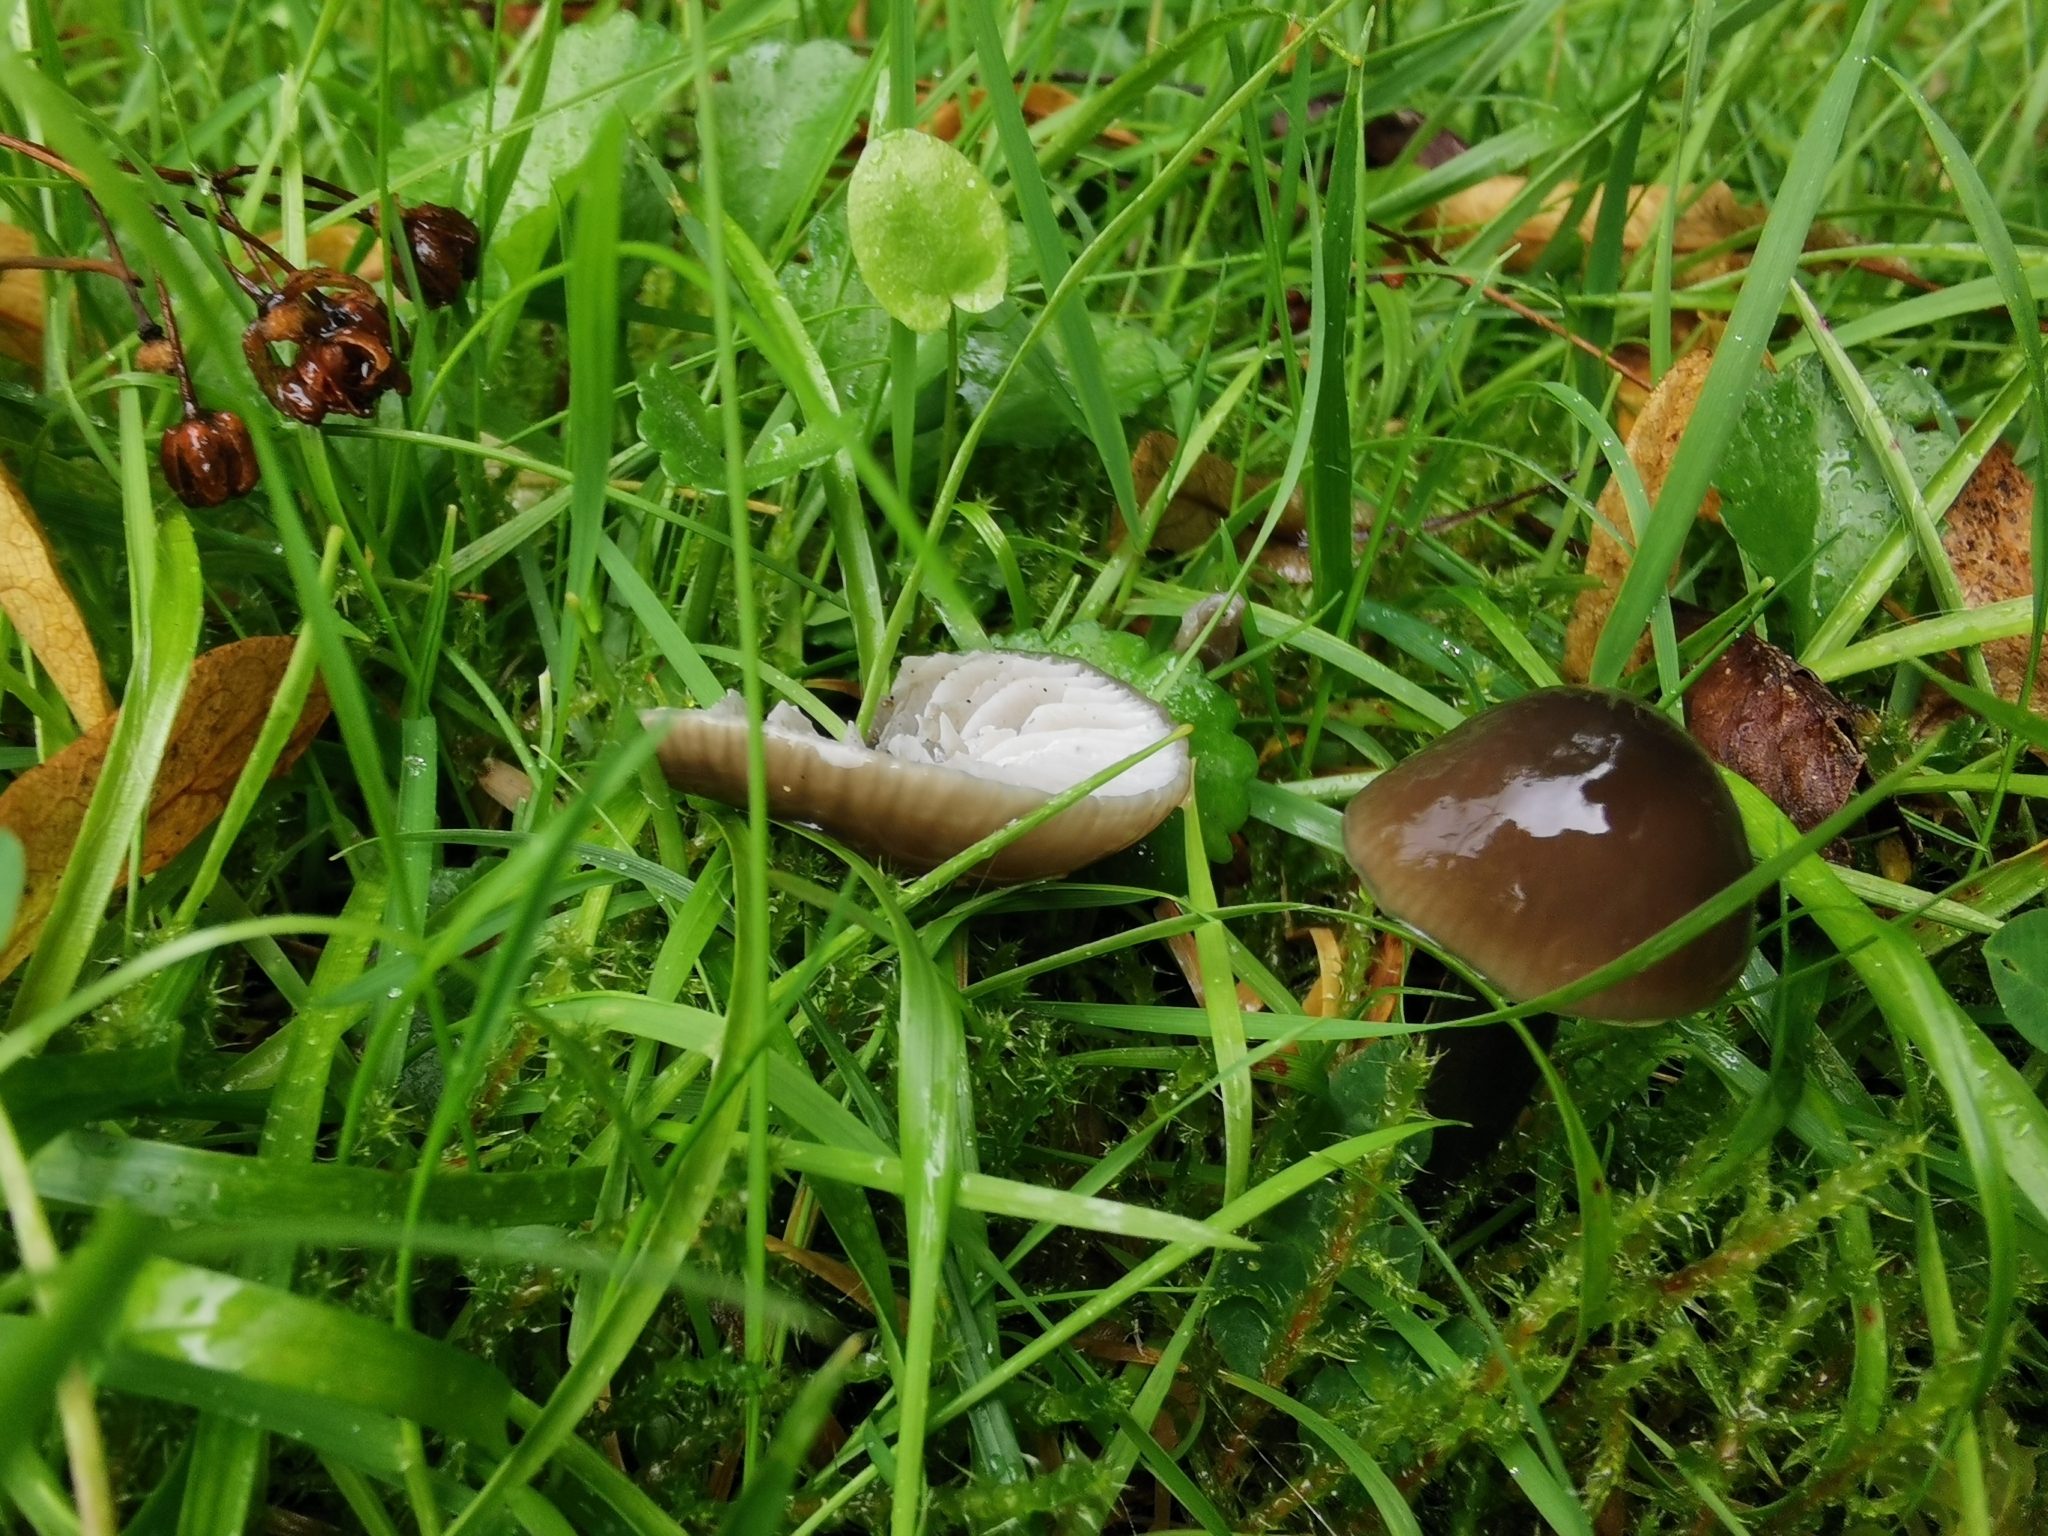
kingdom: Fungi
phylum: Basidiomycota
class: Agaricomycetes
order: Agaricales
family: Hygrophoraceae
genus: Gliophorus
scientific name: Gliophorus irrigatus
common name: Slimy waxcap
